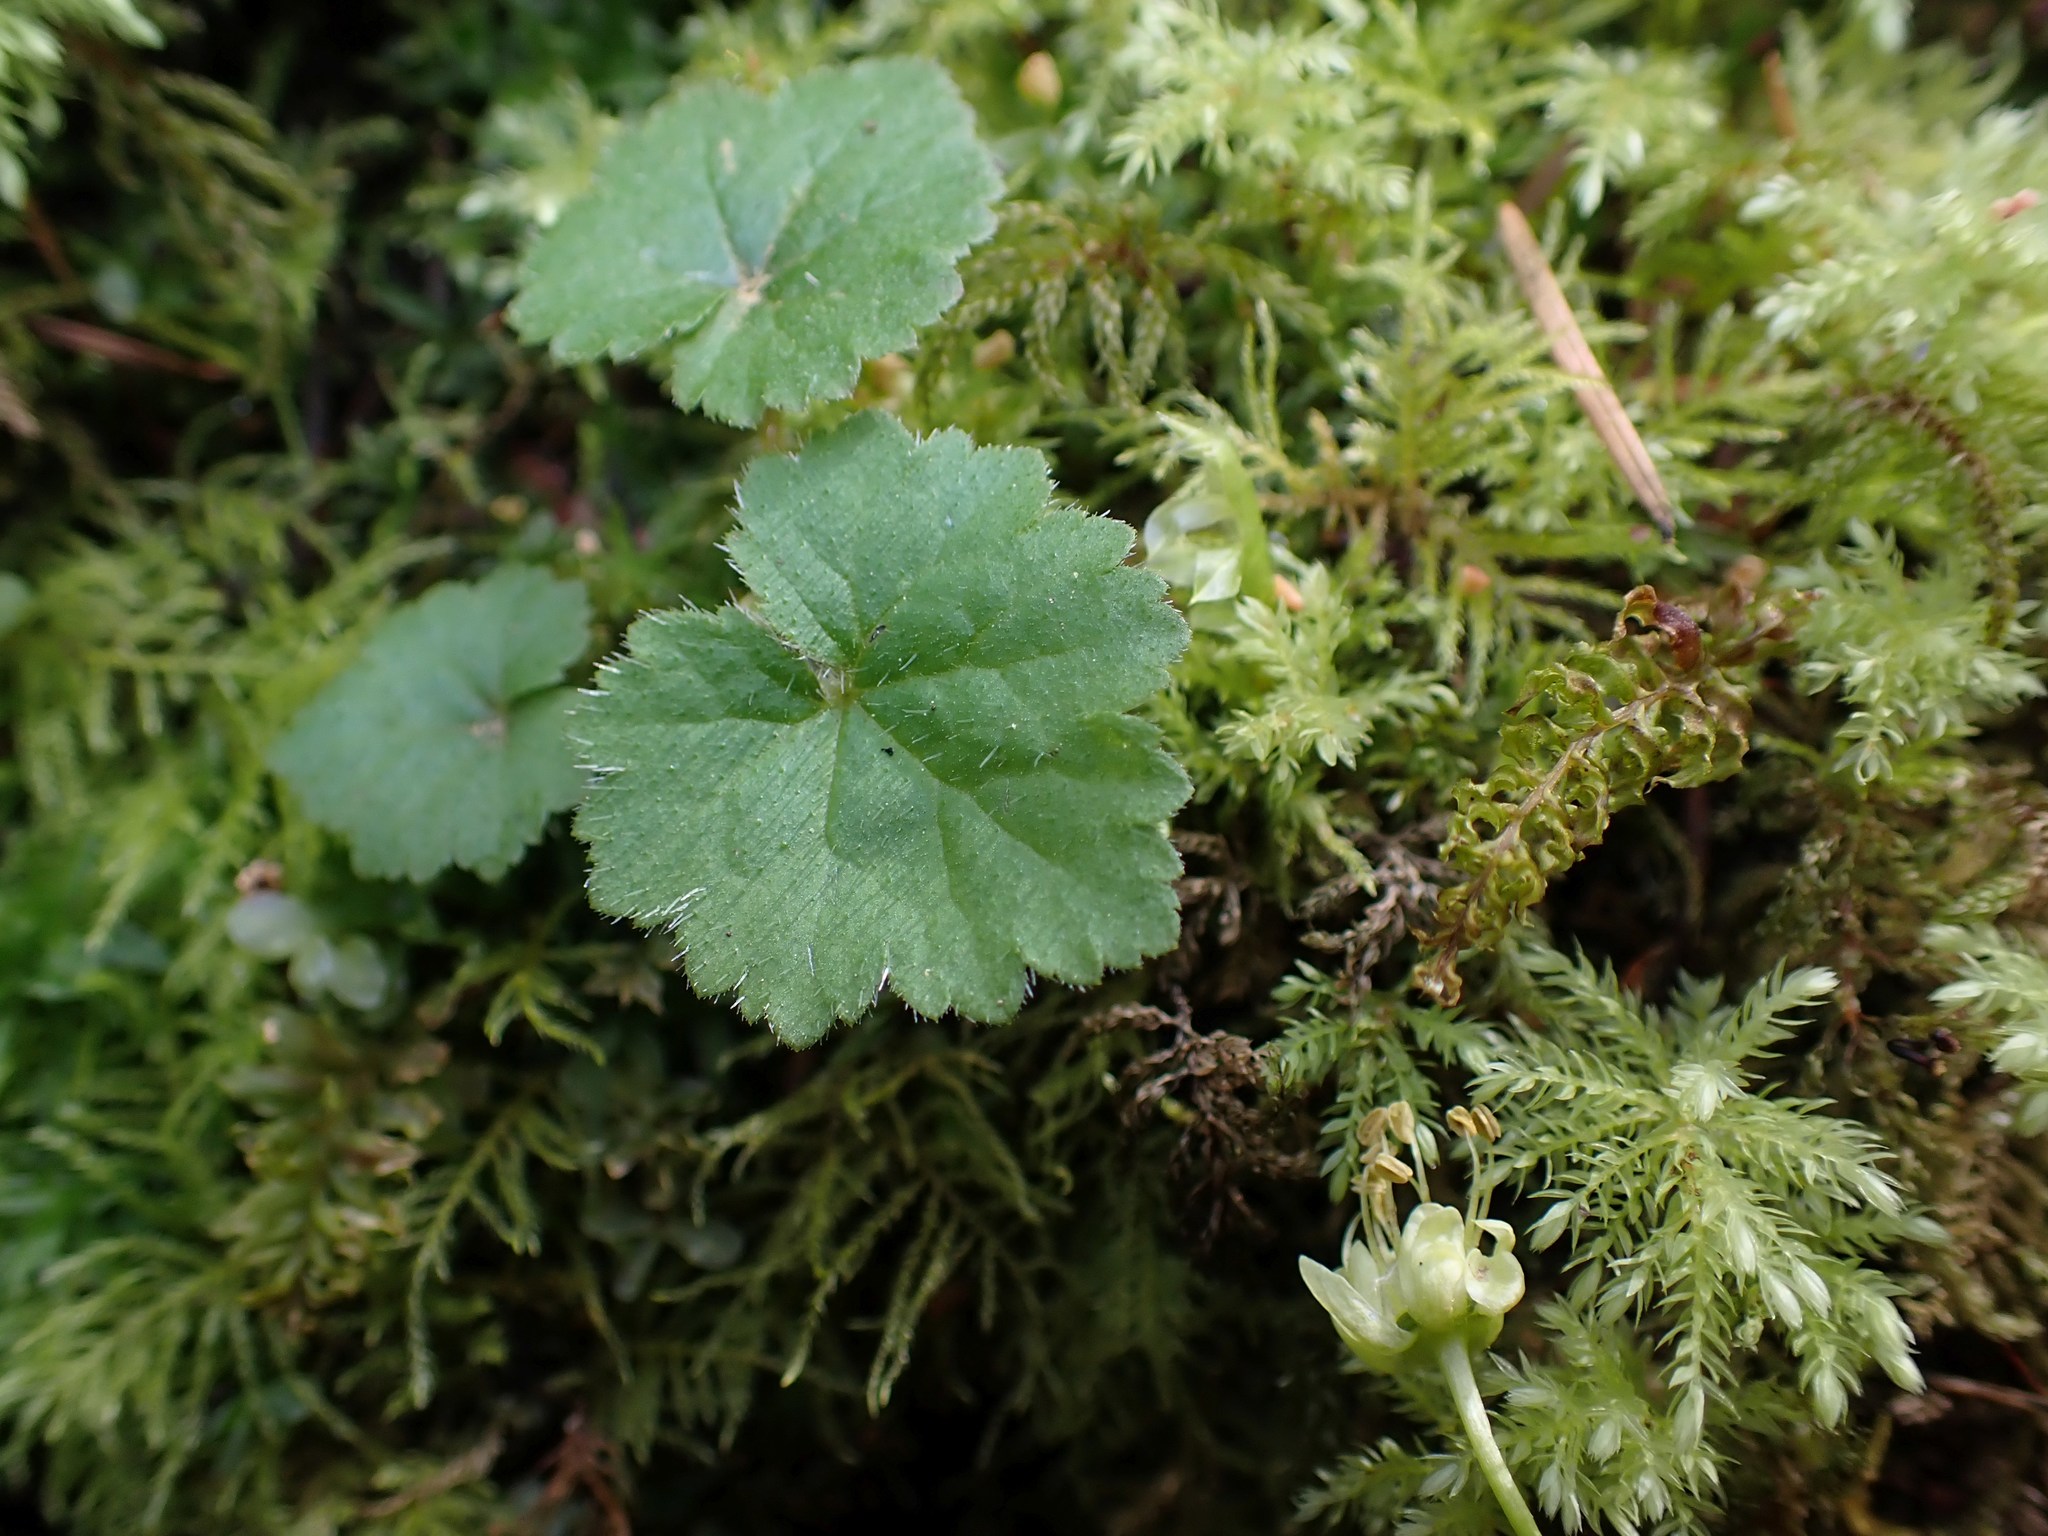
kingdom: Plantae
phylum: Tracheophyta
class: Magnoliopsida
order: Saxifragales
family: Saxifragaceae
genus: Tellima
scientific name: Tellima grandiflora
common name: Fringecups
